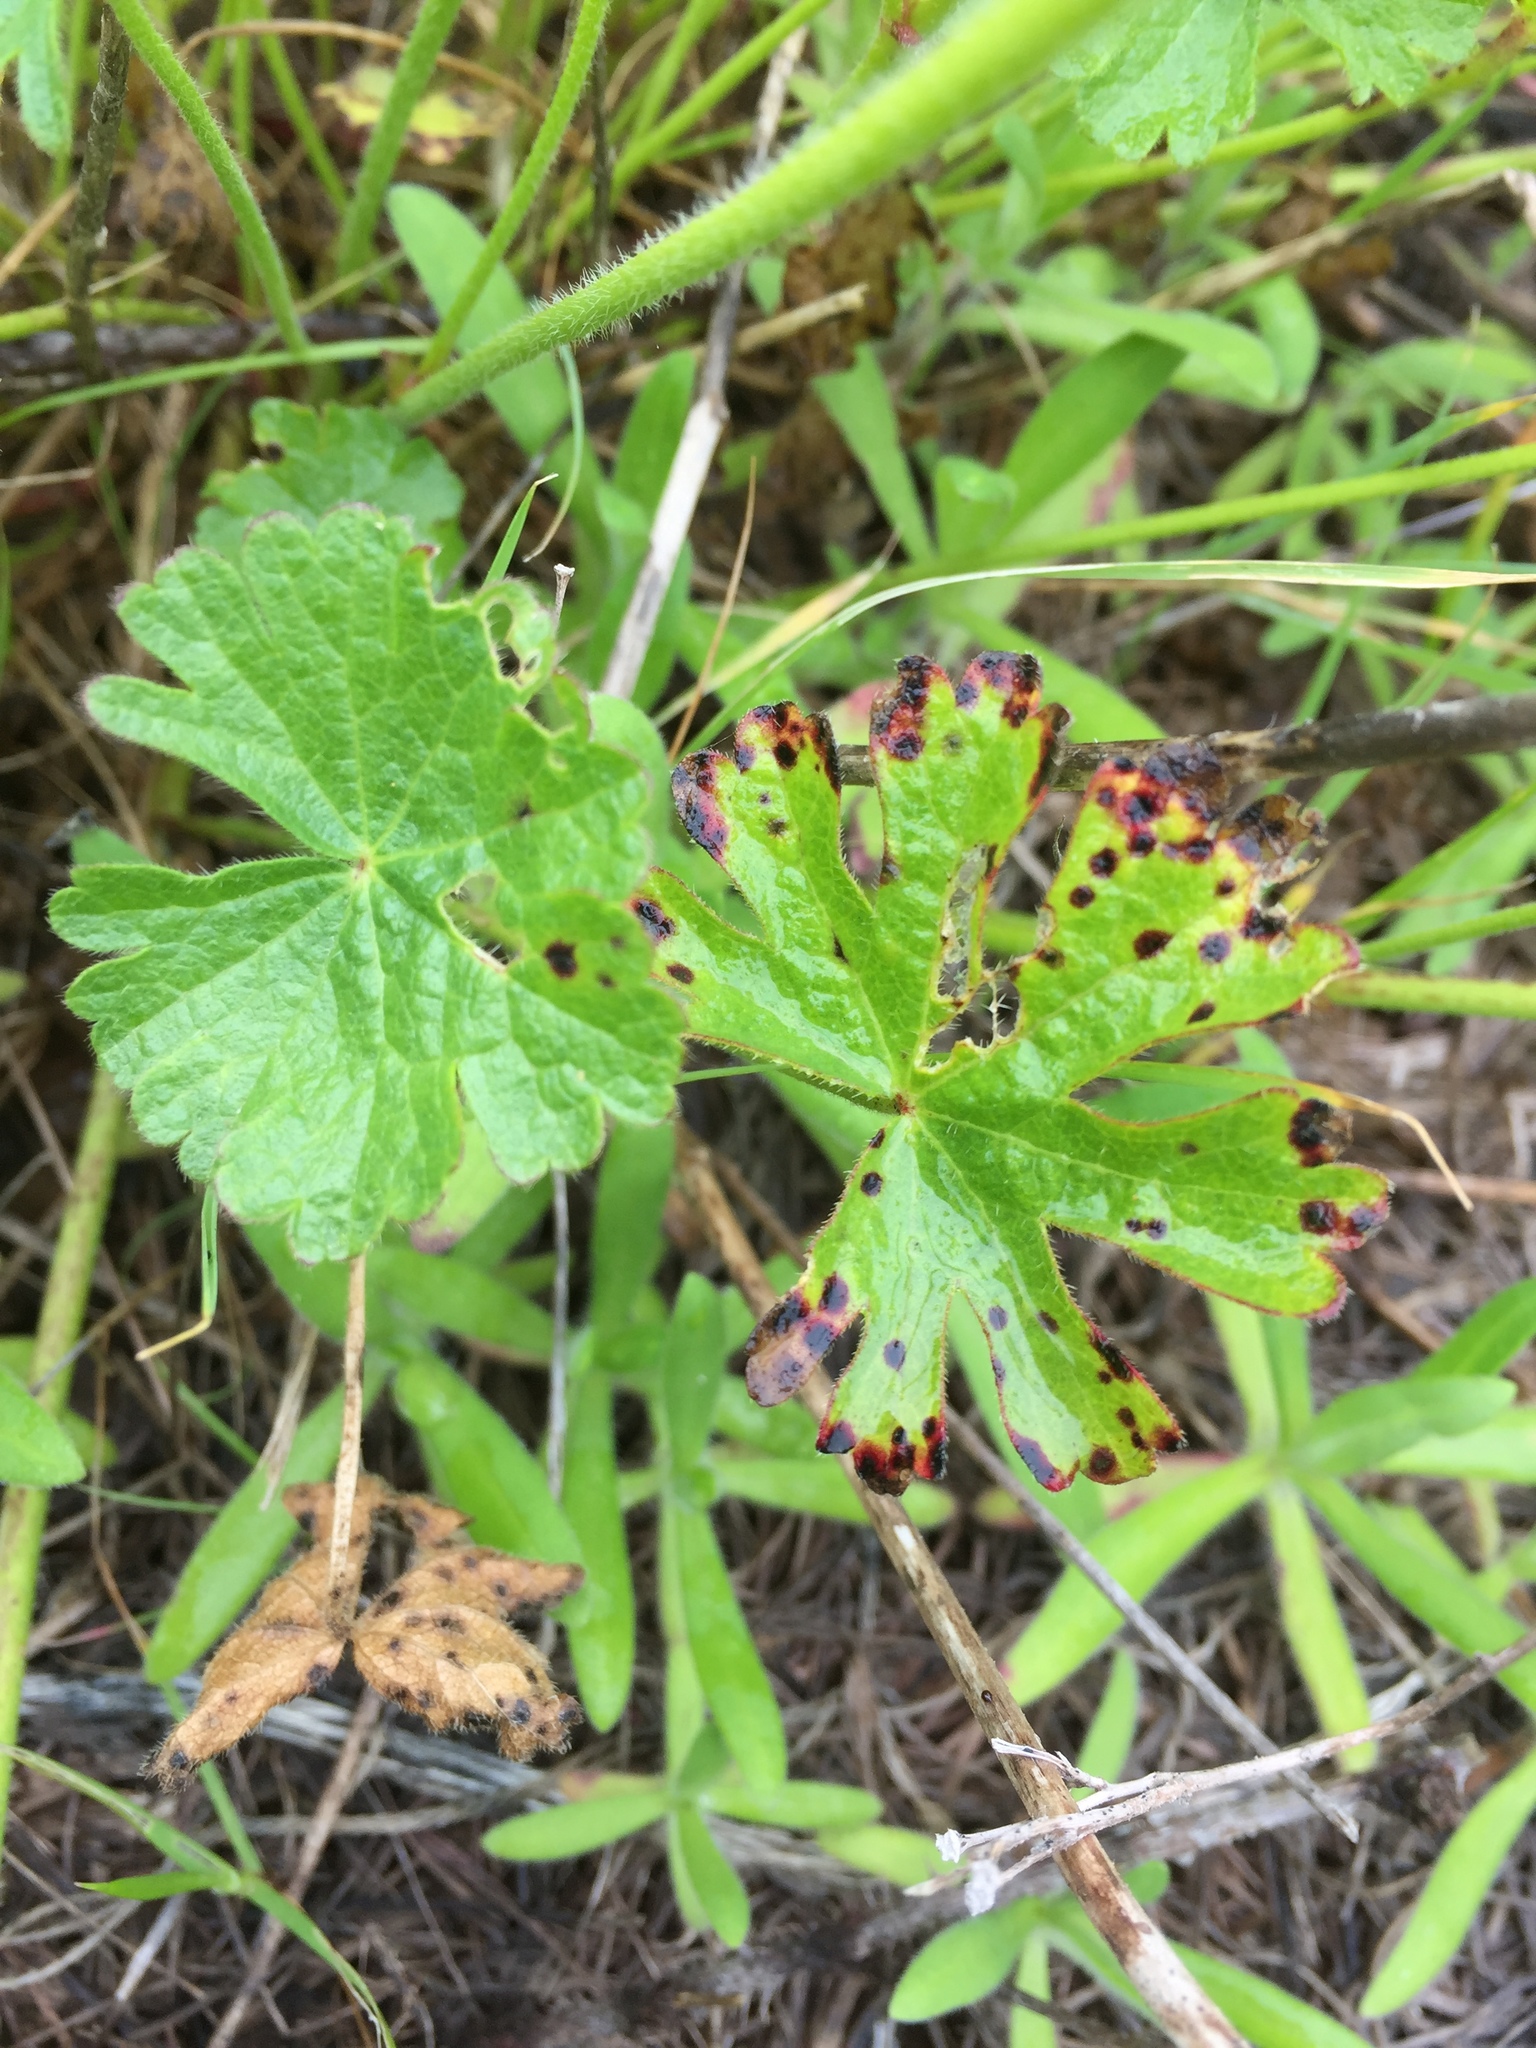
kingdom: Plantae
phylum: Tracheophyta
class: Magnoliopsida
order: Malvales
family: Malvaceae
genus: Sidalcea
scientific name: Sidalcea malviflora
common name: Greek mallow
